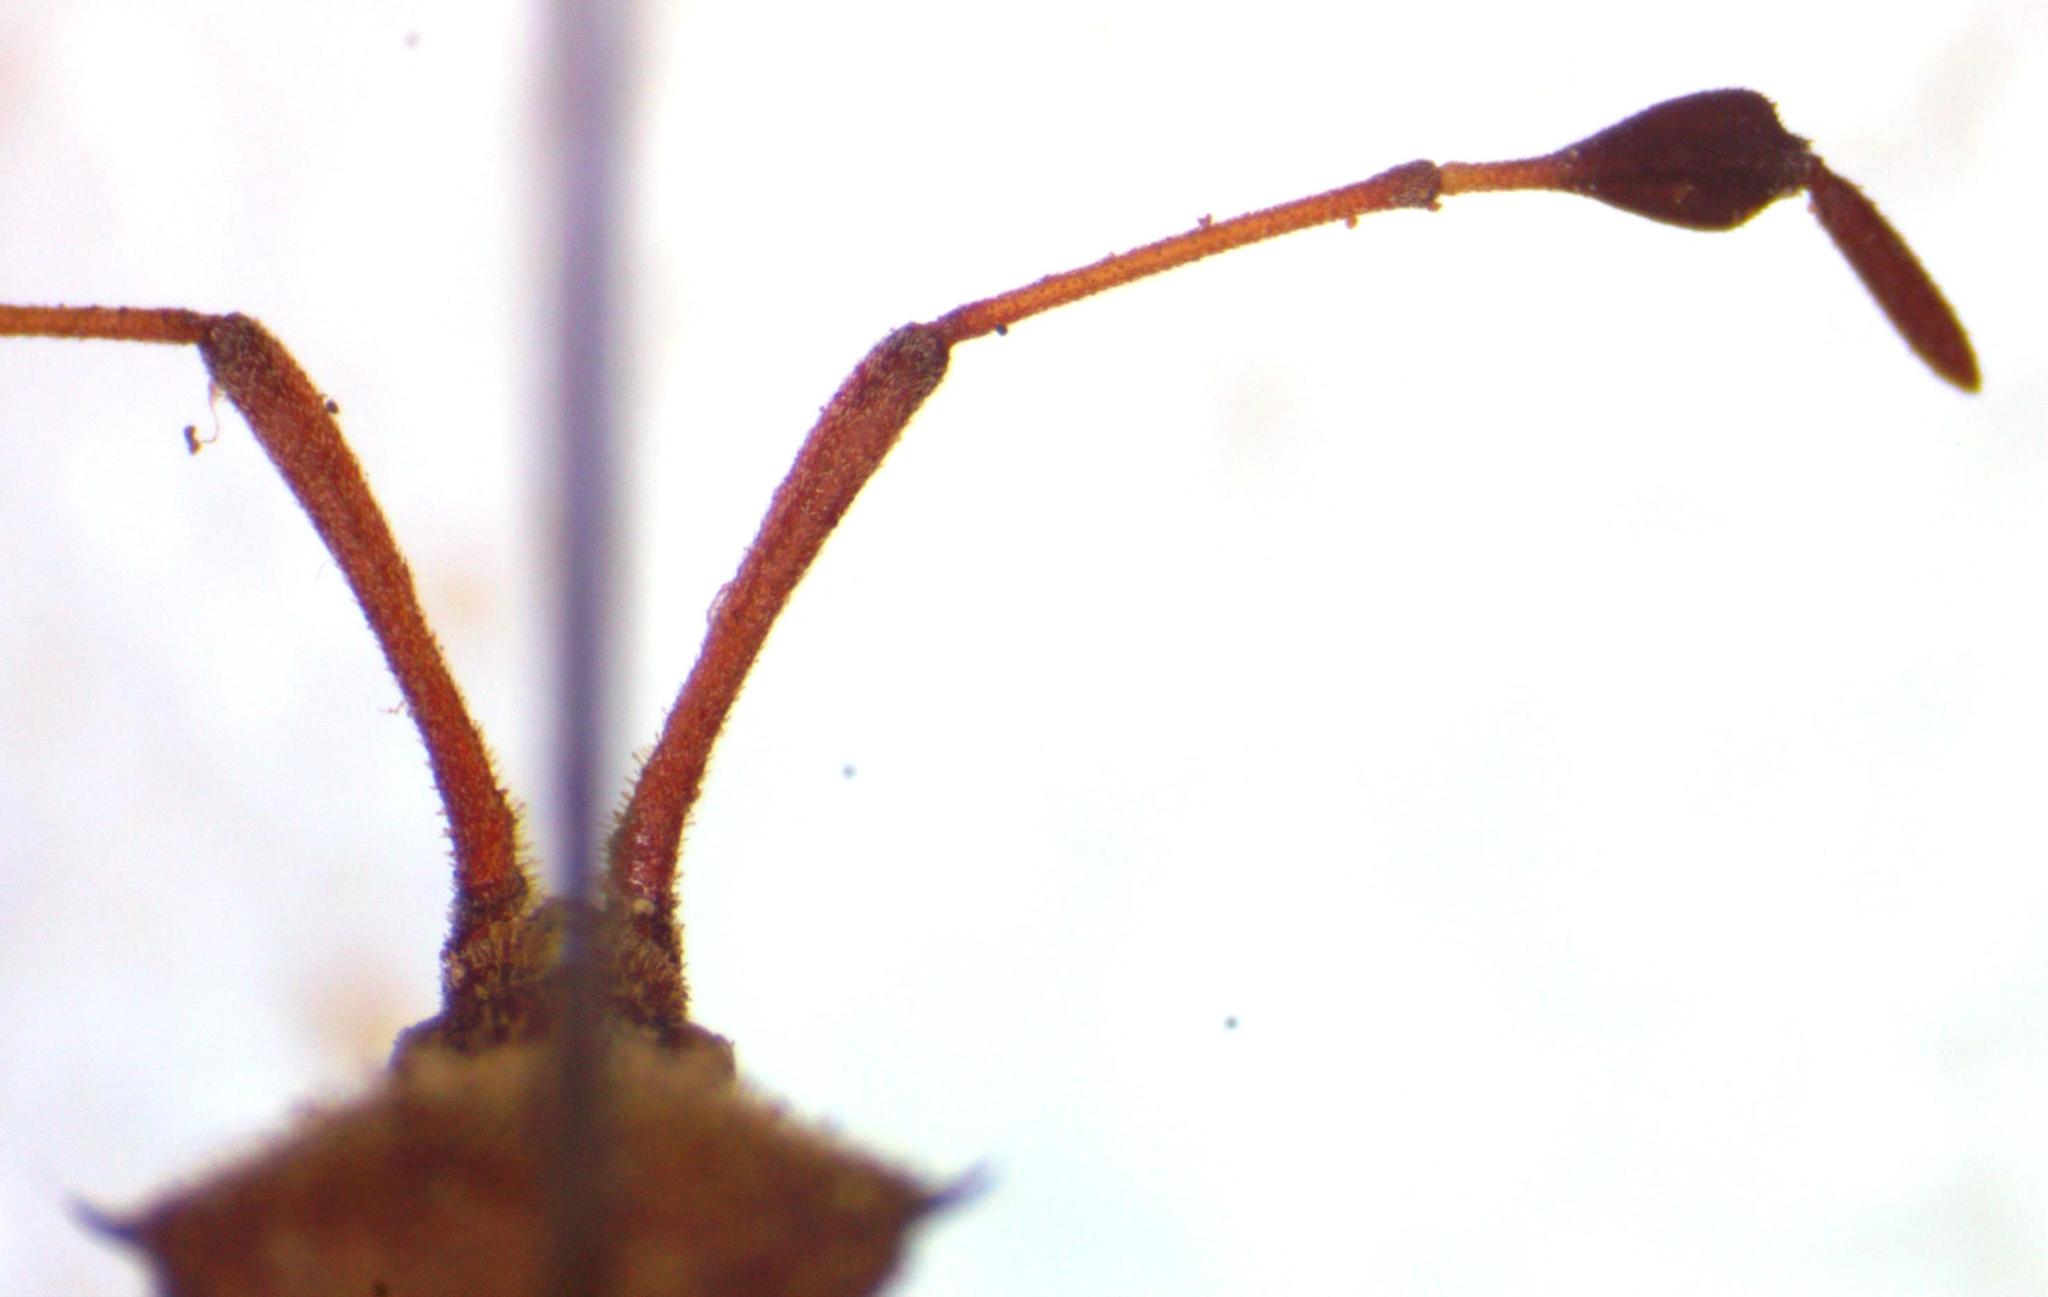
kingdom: Animalia
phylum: Arthropoda
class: Insecta
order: Hemiptera
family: Coreidae
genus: Chariesterus
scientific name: Chariesterus albiventris
